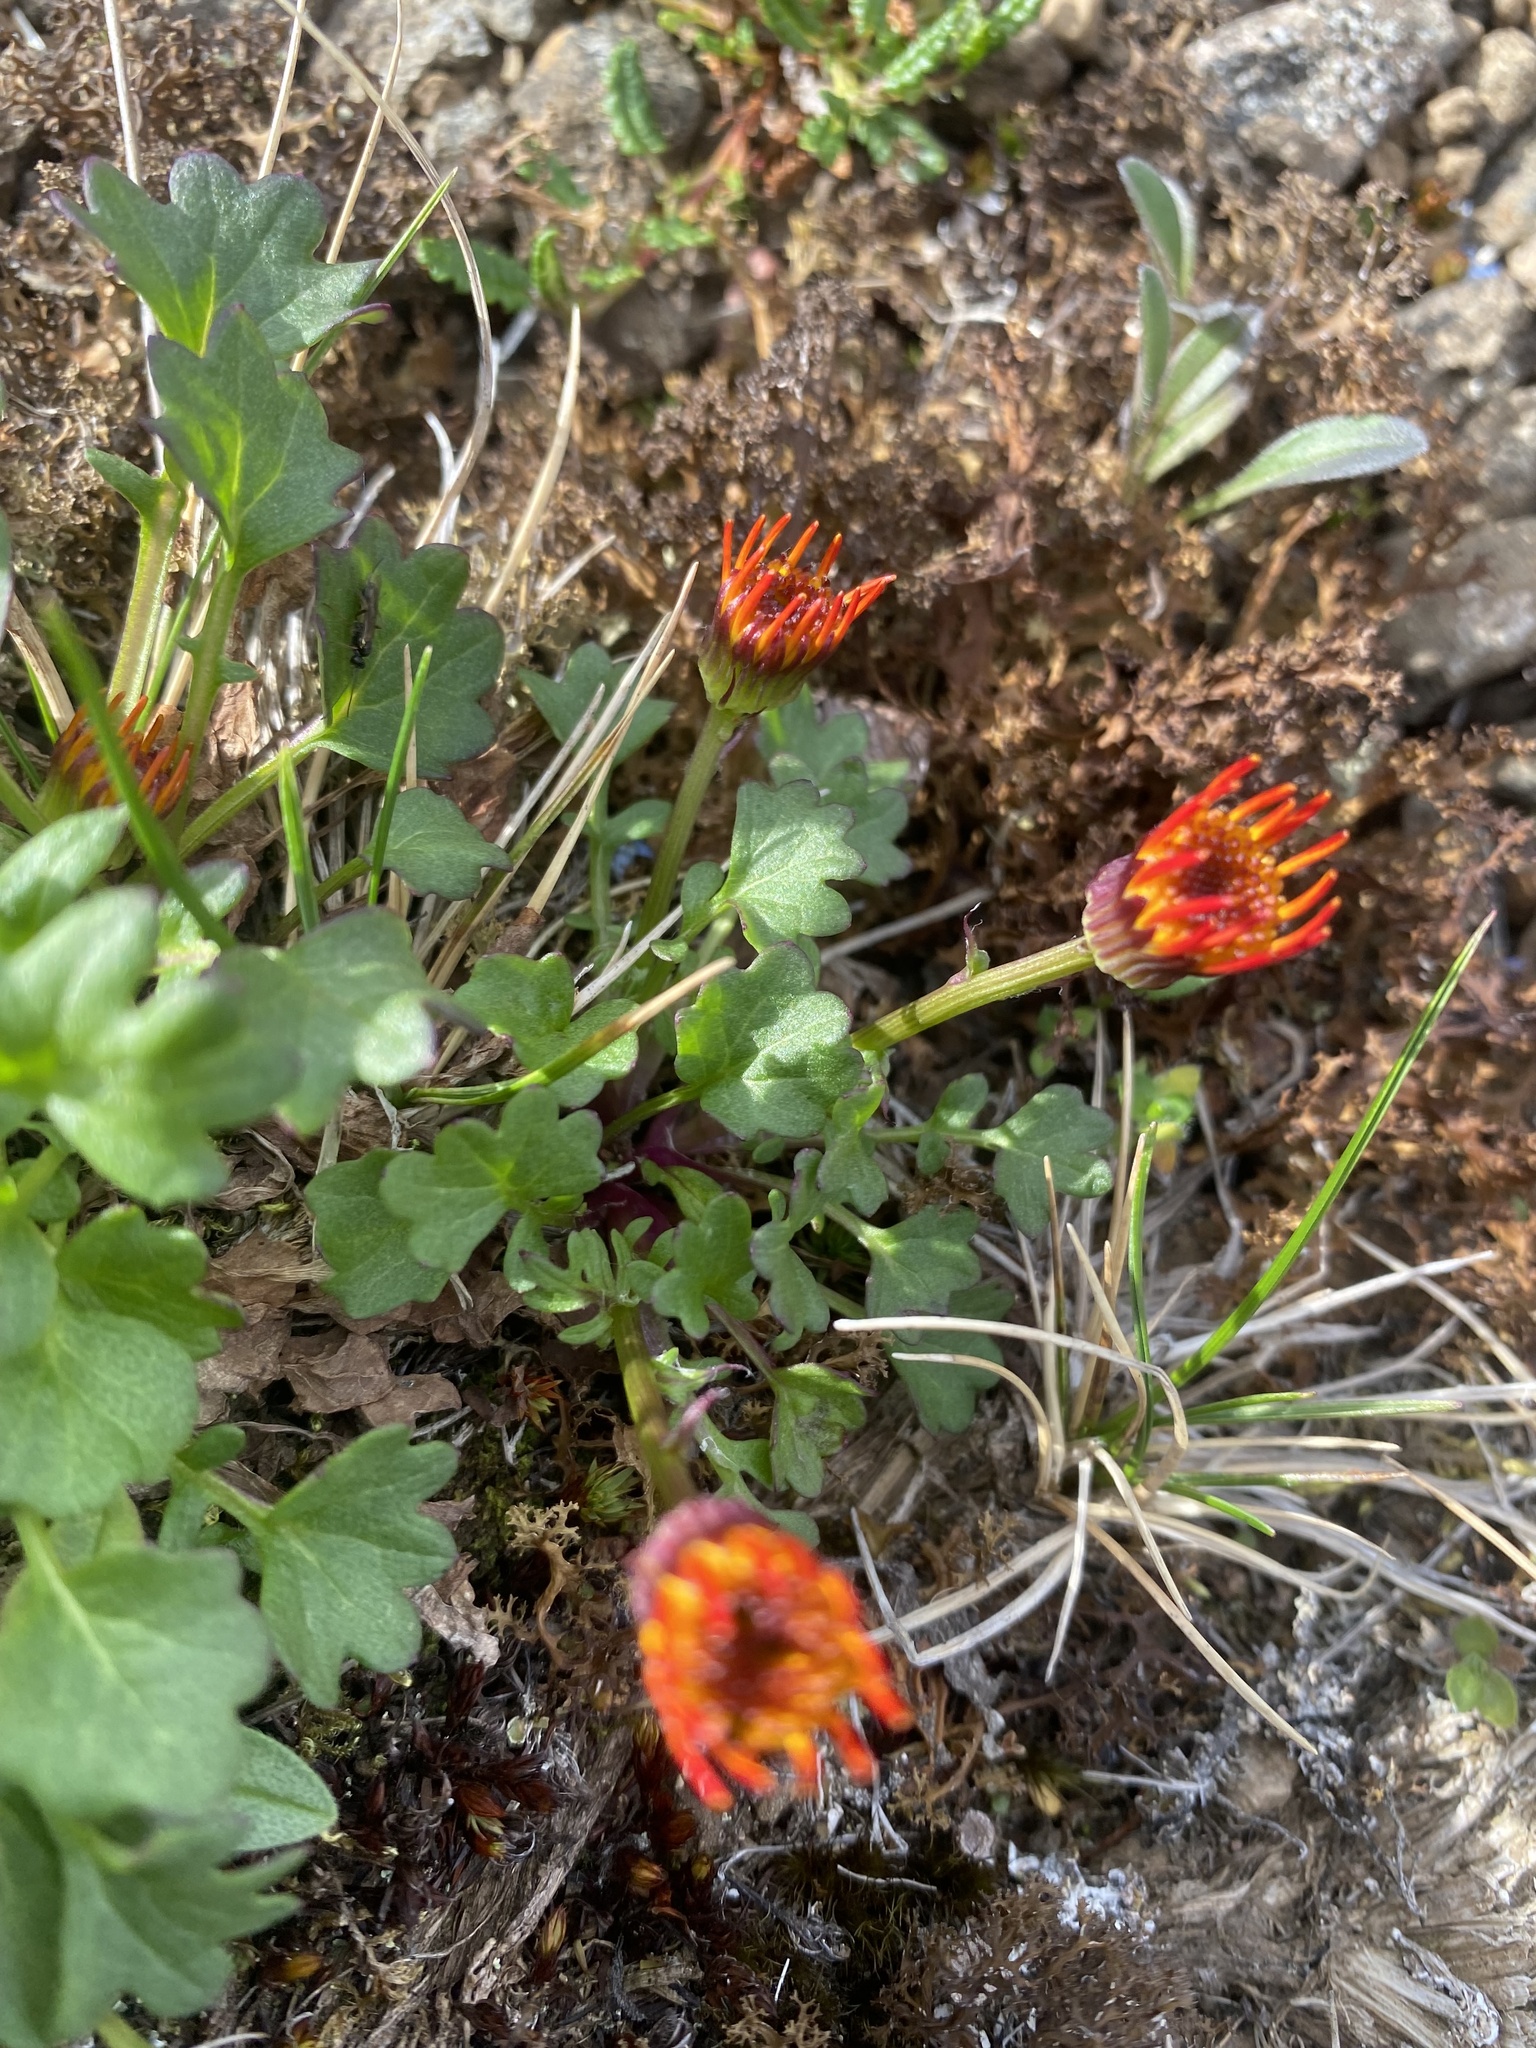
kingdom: Plantae
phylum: Tracheophyta
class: Magnoliopsida
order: Asterales
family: Asteraceae
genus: Packera
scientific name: Packera heterophylla
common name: Arctic butterweed
